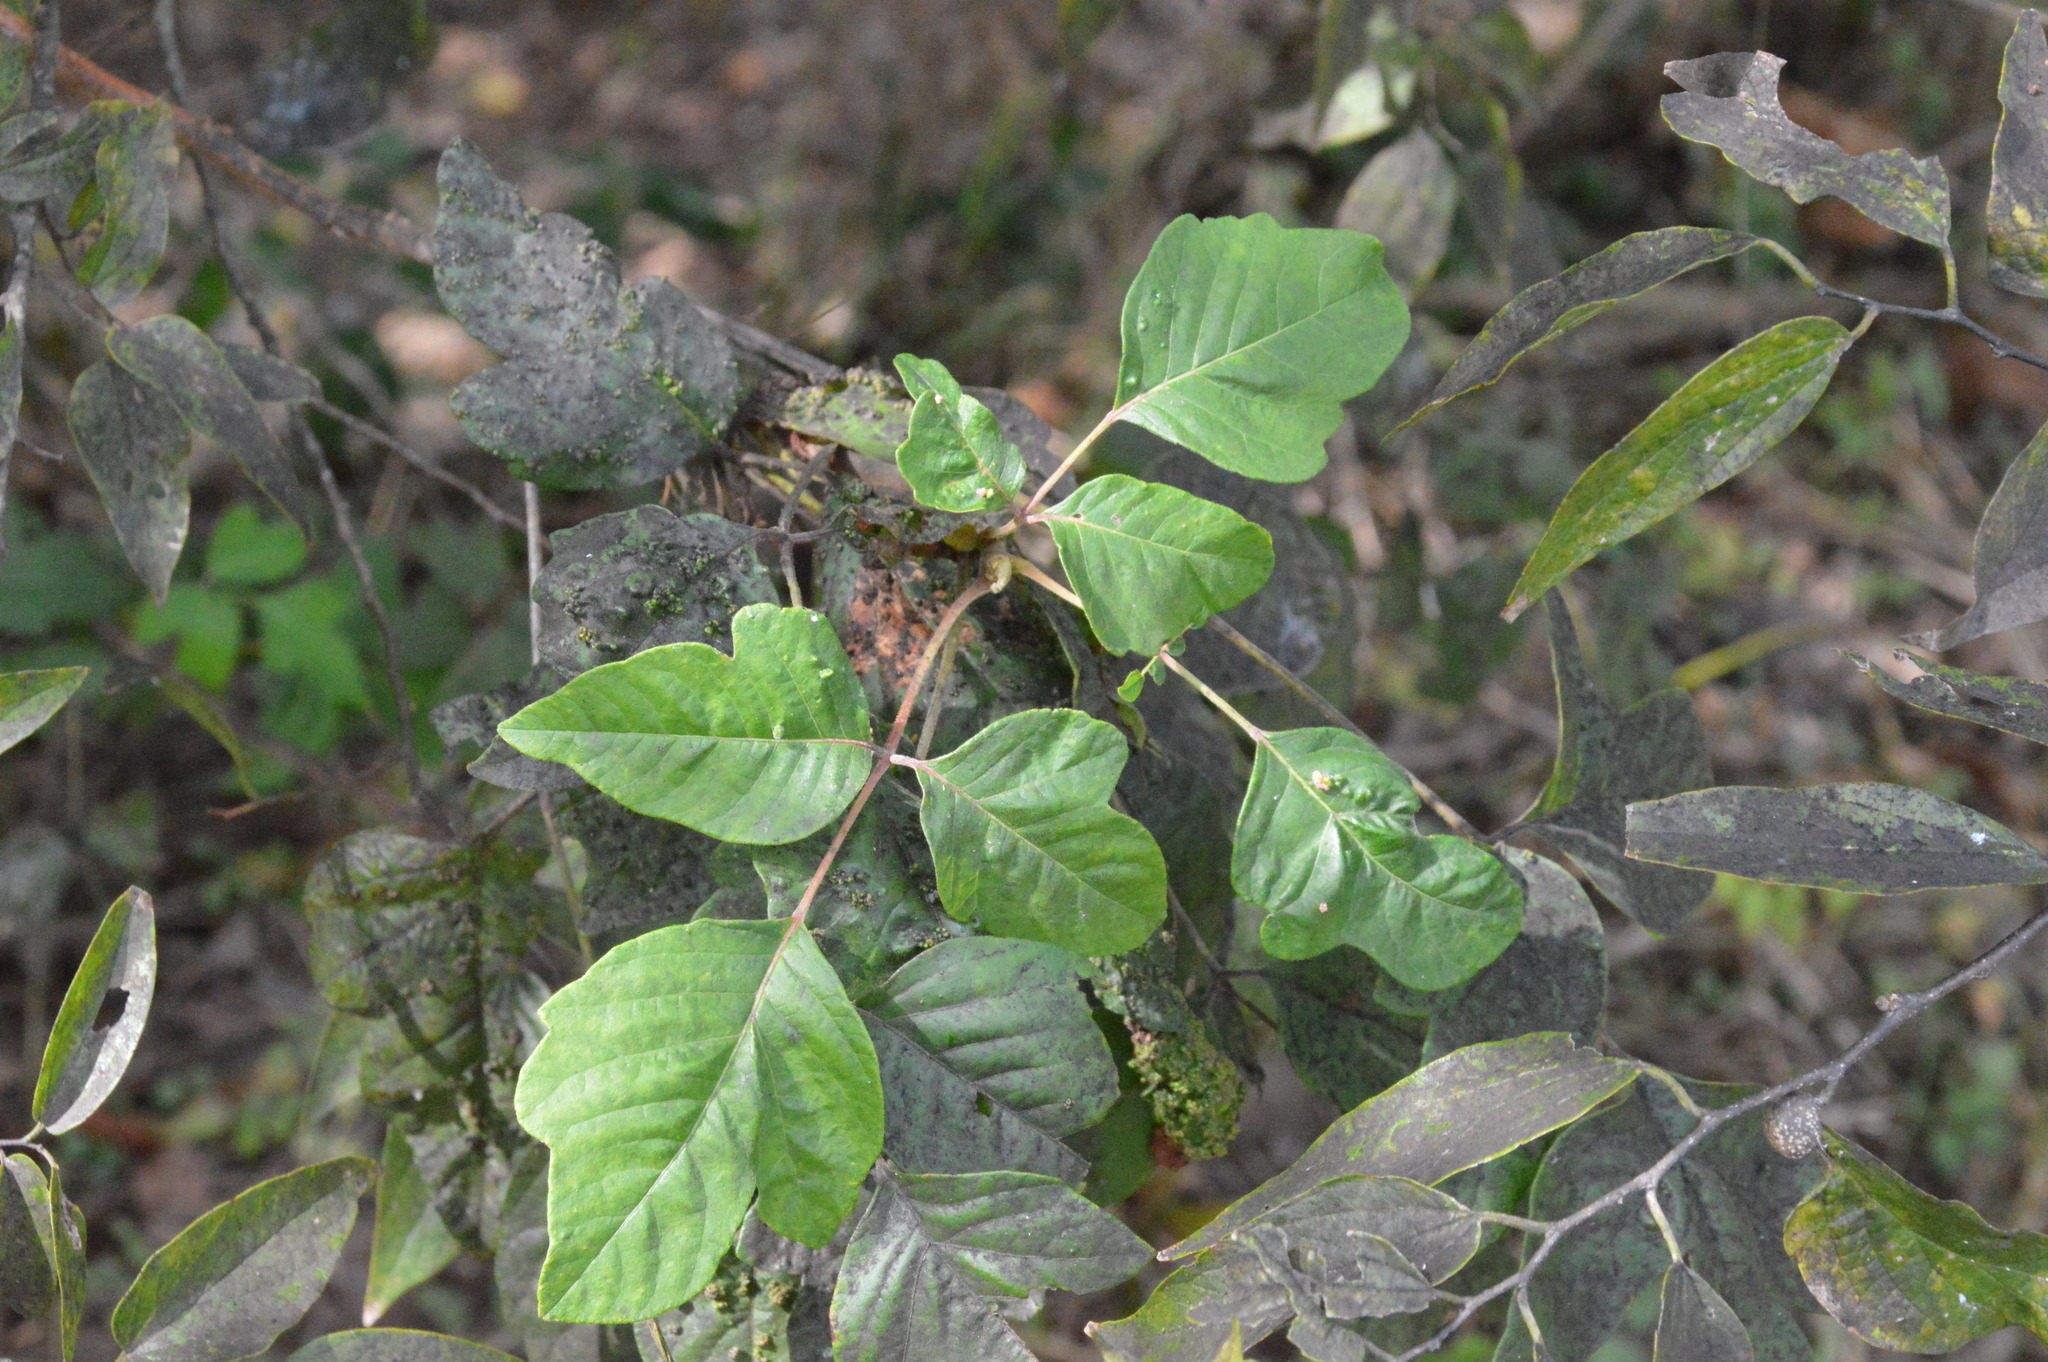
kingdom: Plantae
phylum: Tracheophyta
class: Magnoliopsida
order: Sapindales
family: Anacardiaceae
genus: Toxicodendron
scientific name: Toxicodendron radicans
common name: Poison ivy
